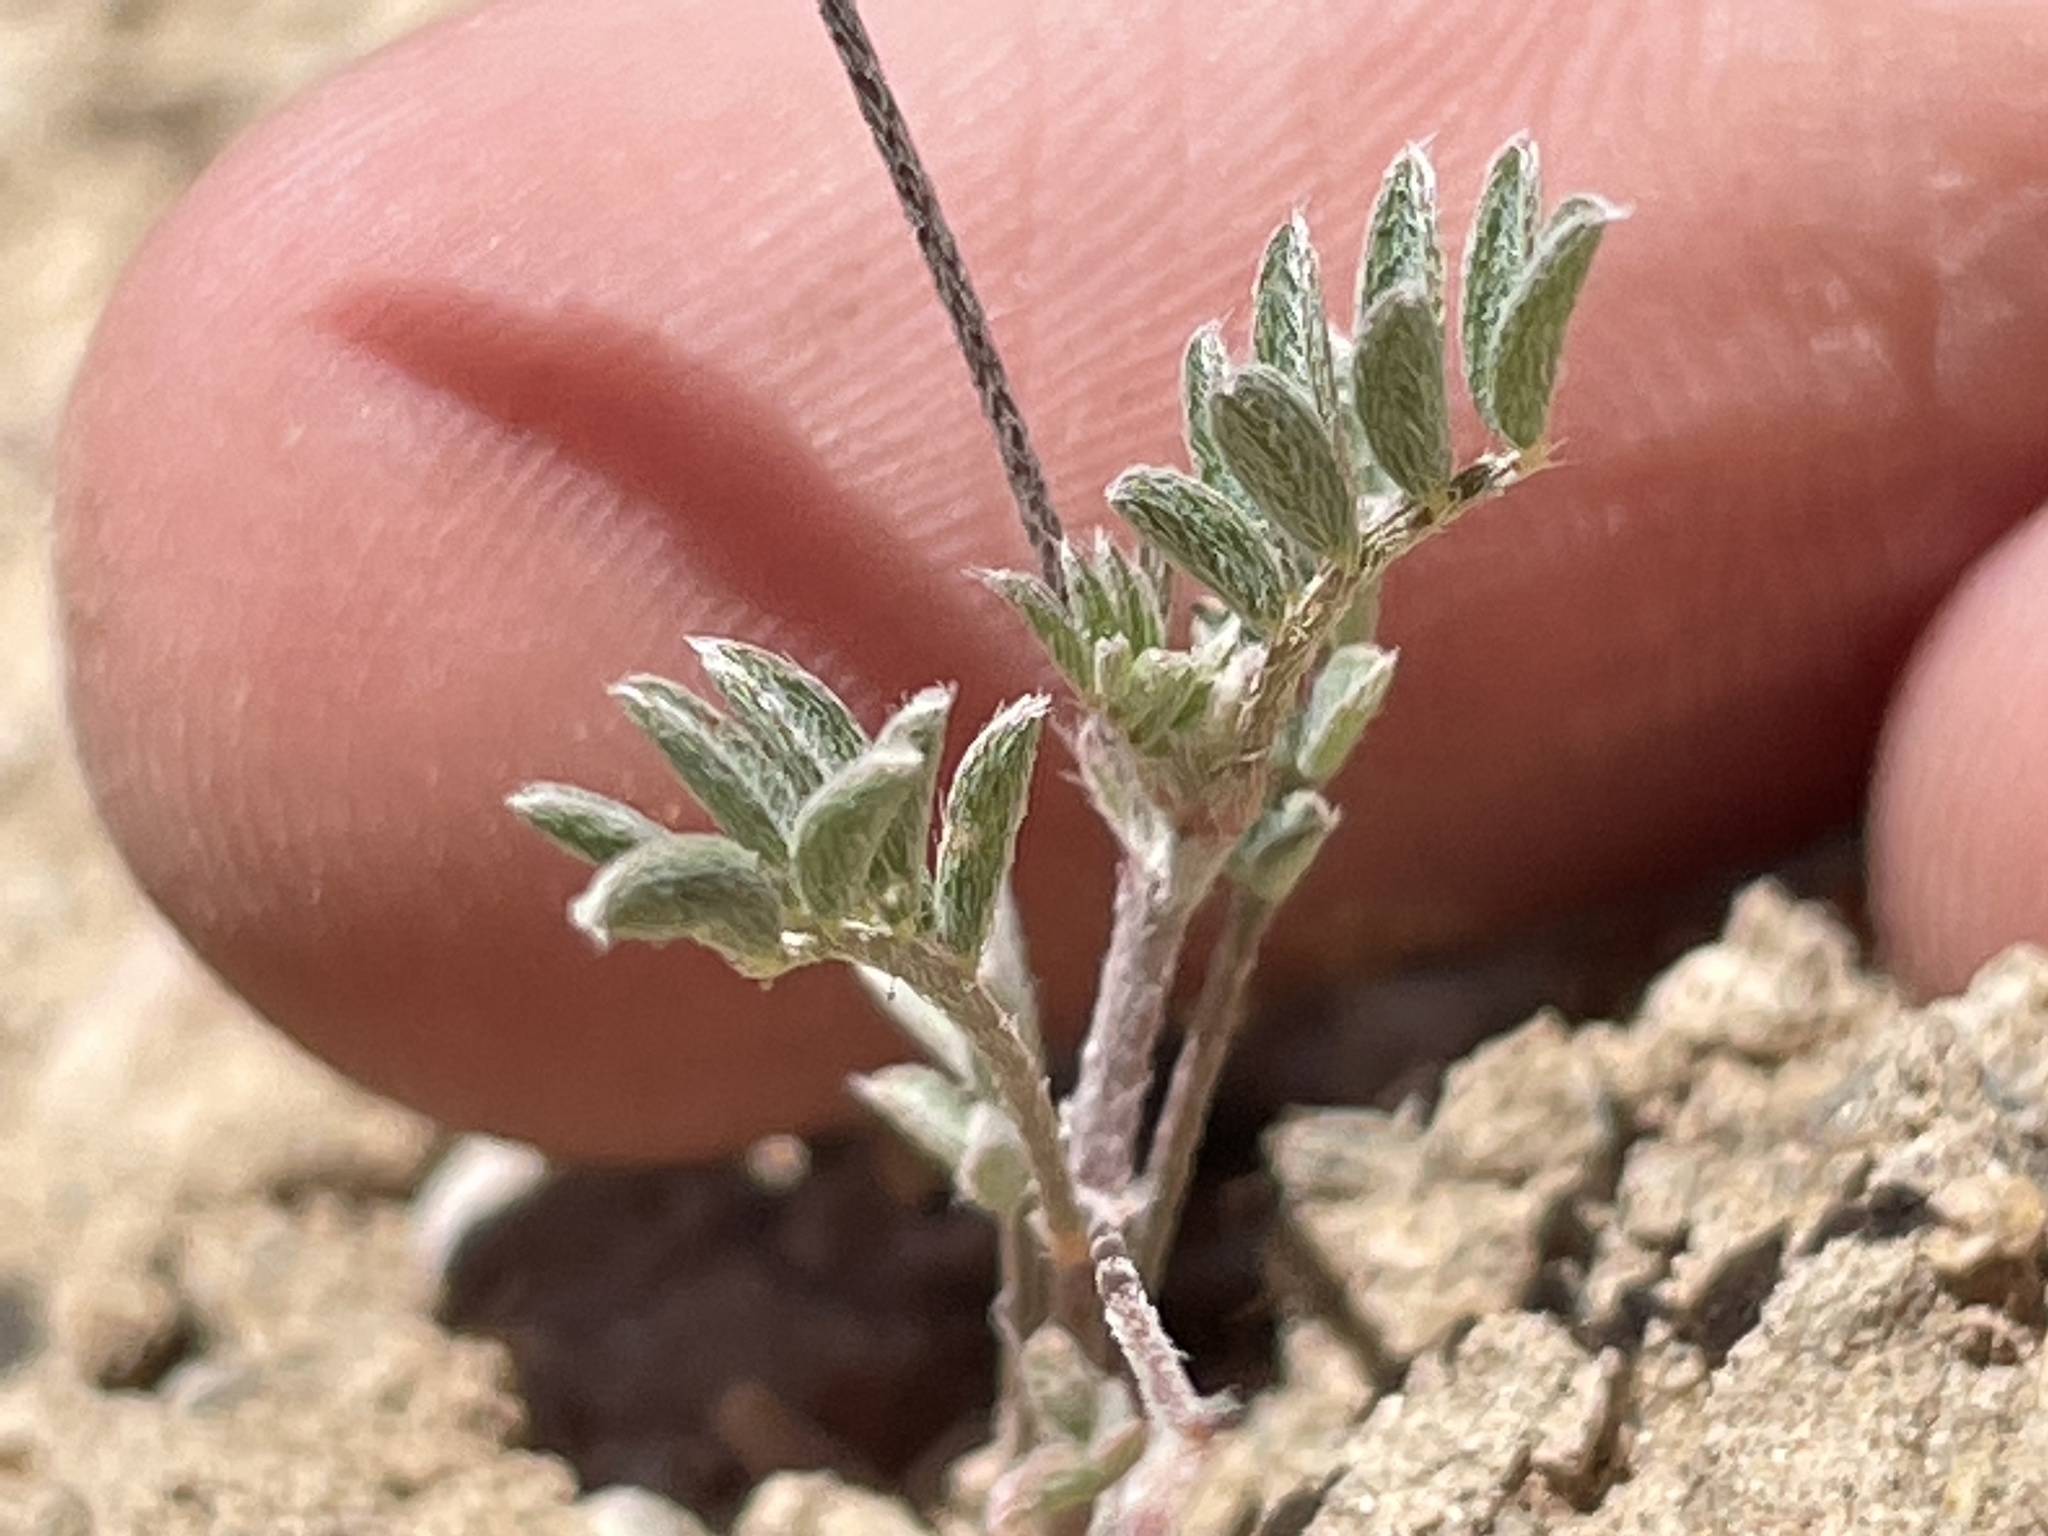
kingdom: Plantae
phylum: Tracheophyta
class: Magnoliopsida
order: Fabales
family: Fabaceae
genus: Astragalus
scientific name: Astragalus nuttallianus
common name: Smallflowered milkvetch
